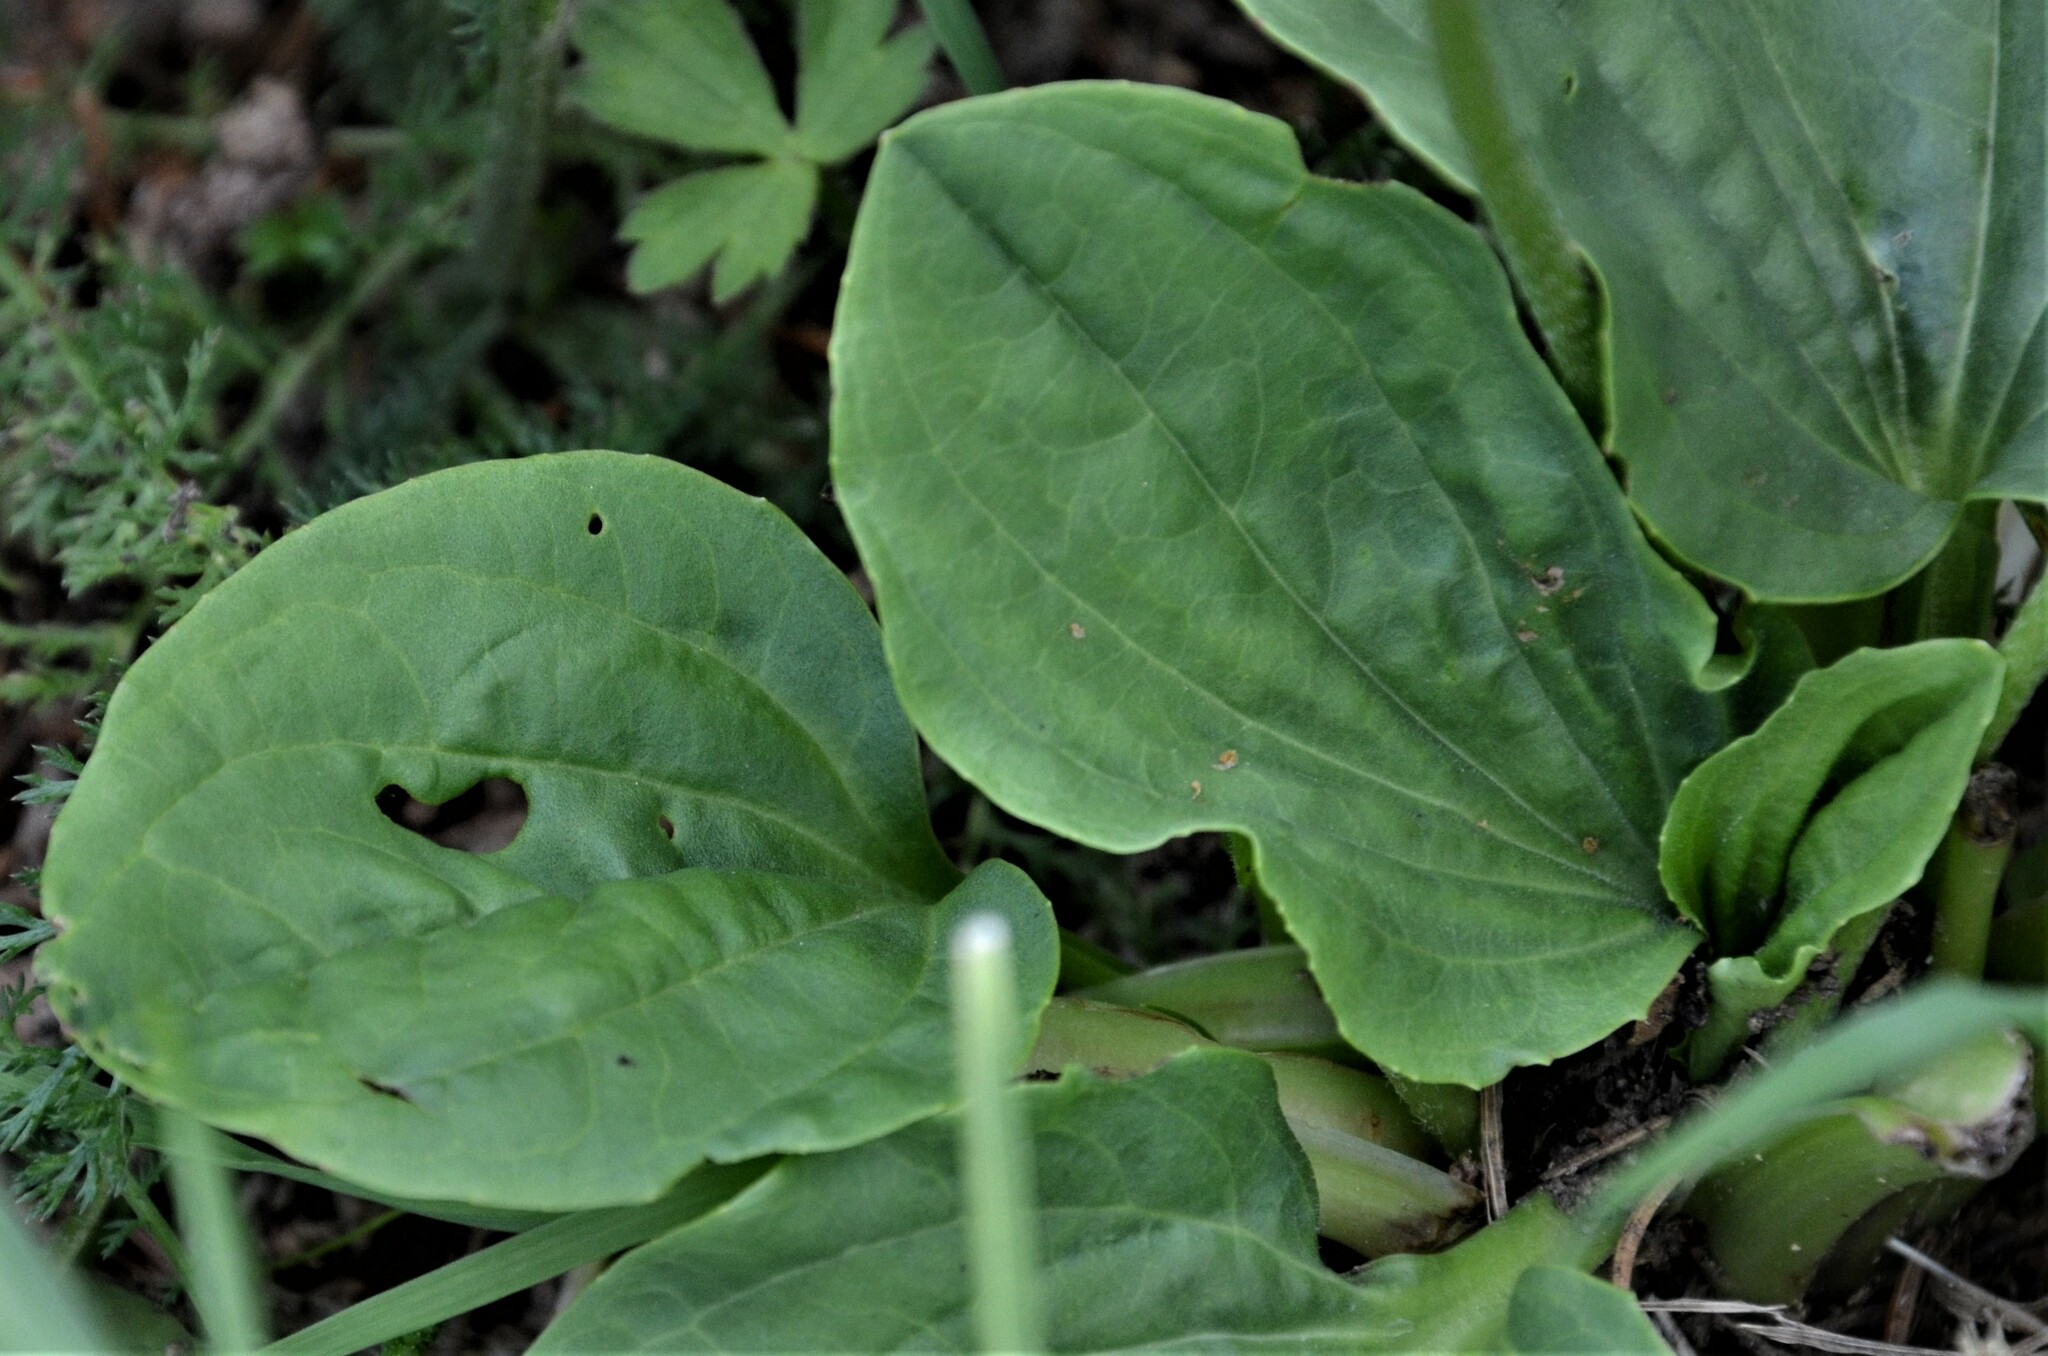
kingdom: Plantae
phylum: Tracheophyta
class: Magnoliopsida
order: Lamiales
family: Plantaginaceae
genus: Plantago
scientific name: Plantago major
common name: Common plantain
